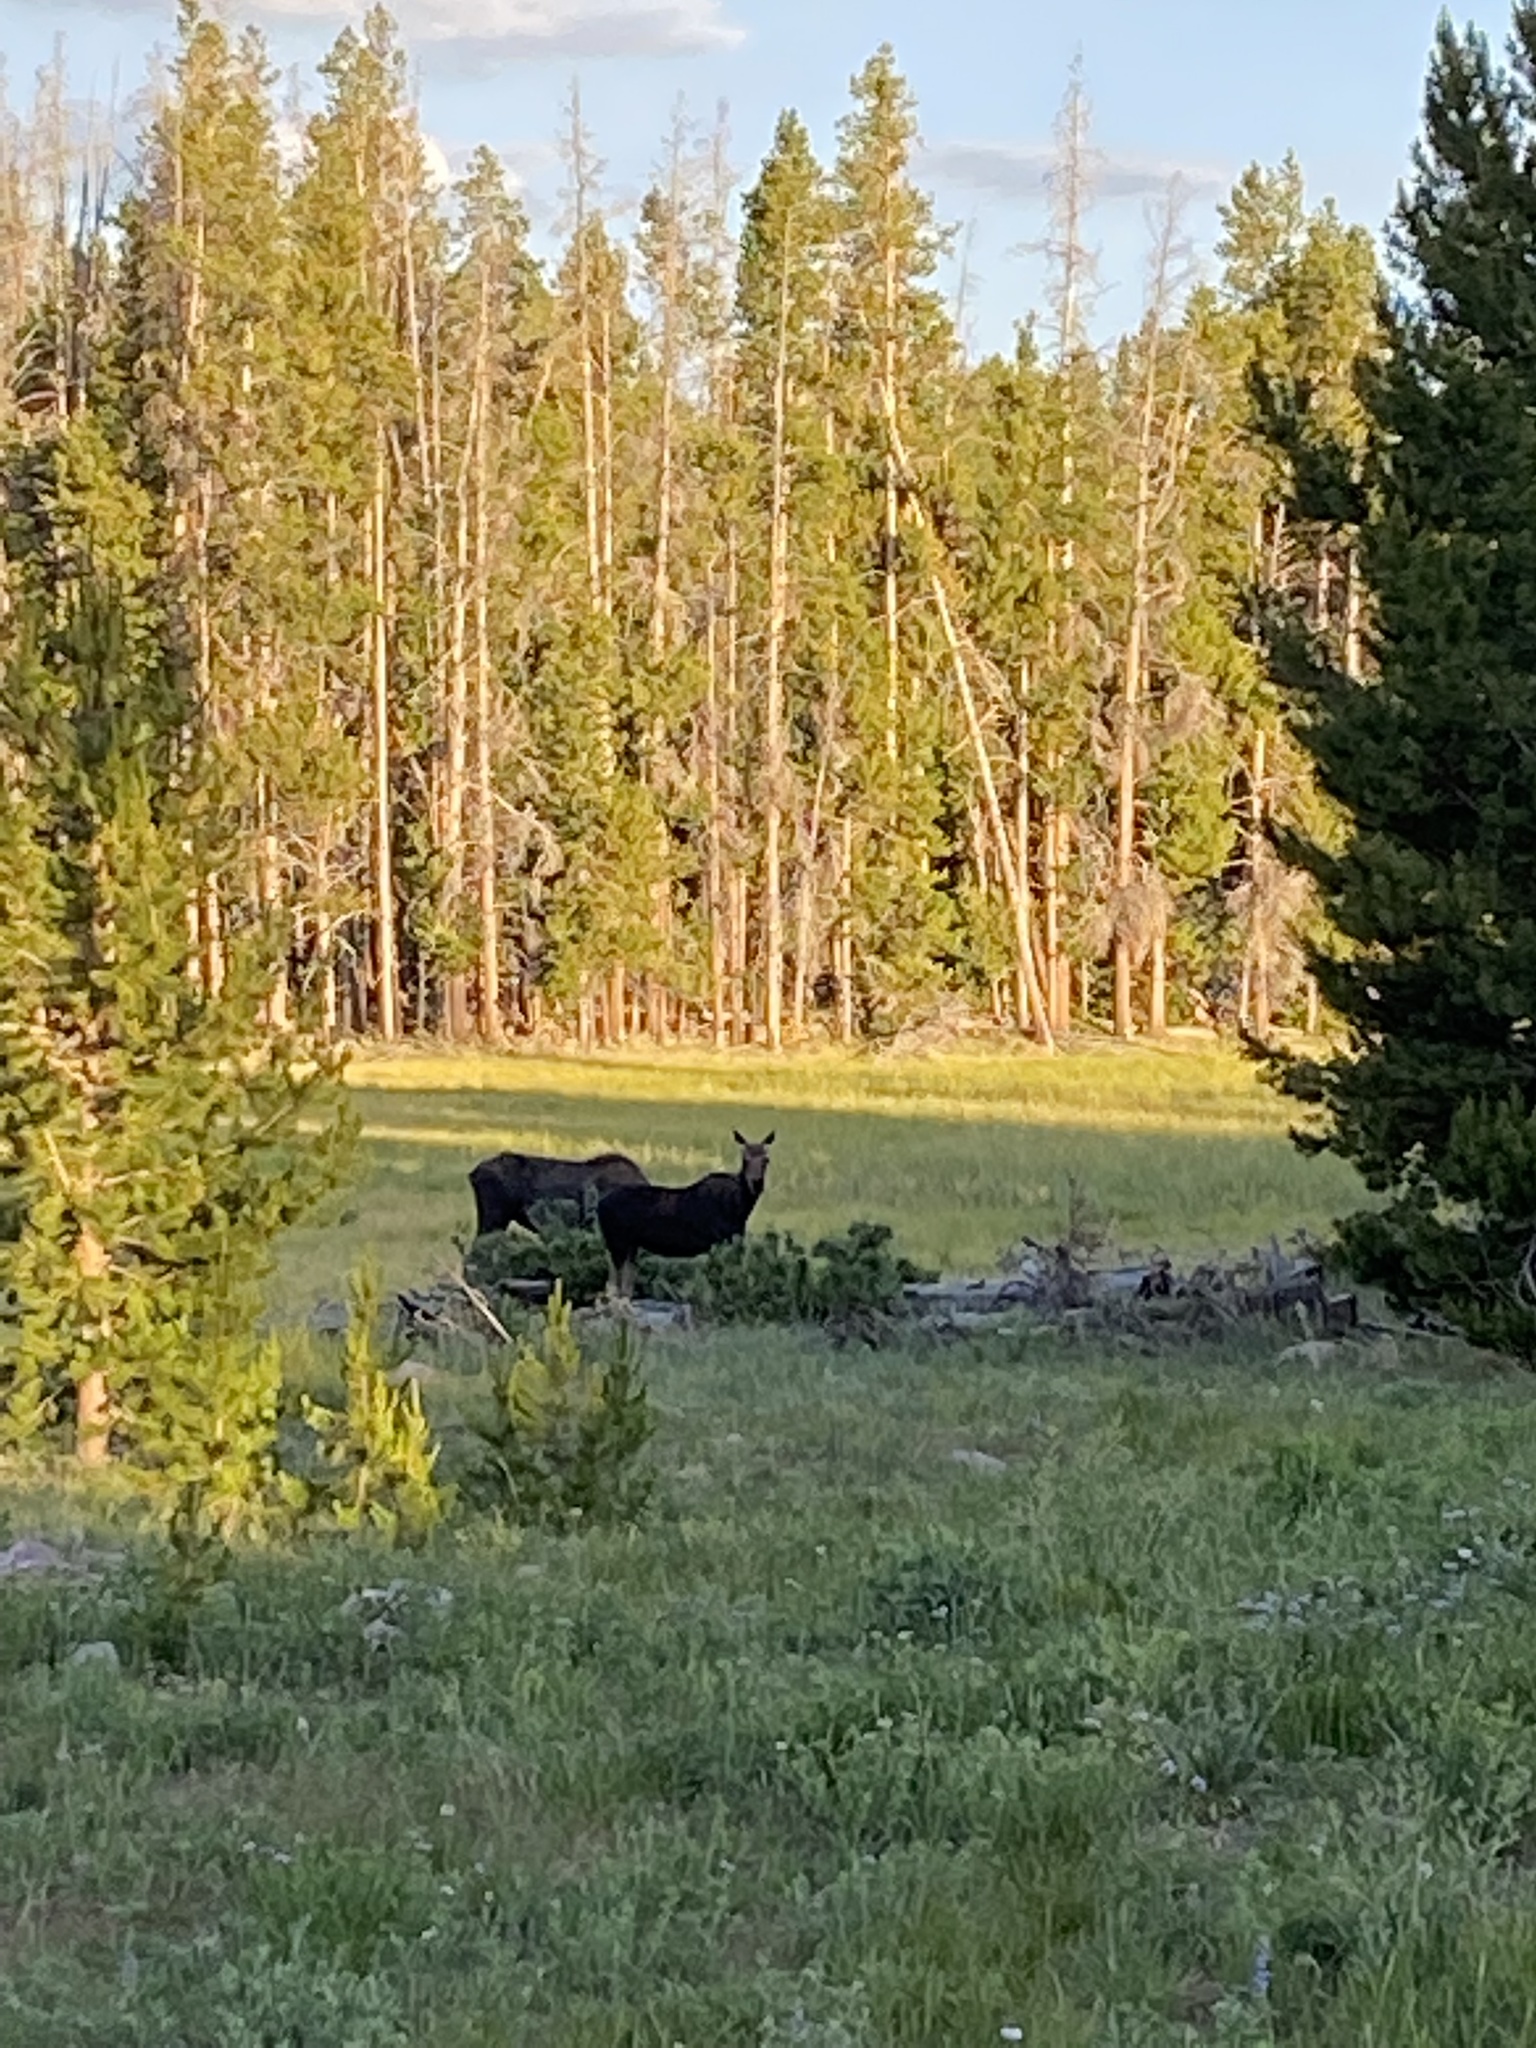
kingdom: Animalia
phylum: Chordata
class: Mammalia
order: Artiodactyla
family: Cervidae
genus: Alces
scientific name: Alces alces
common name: Moose
